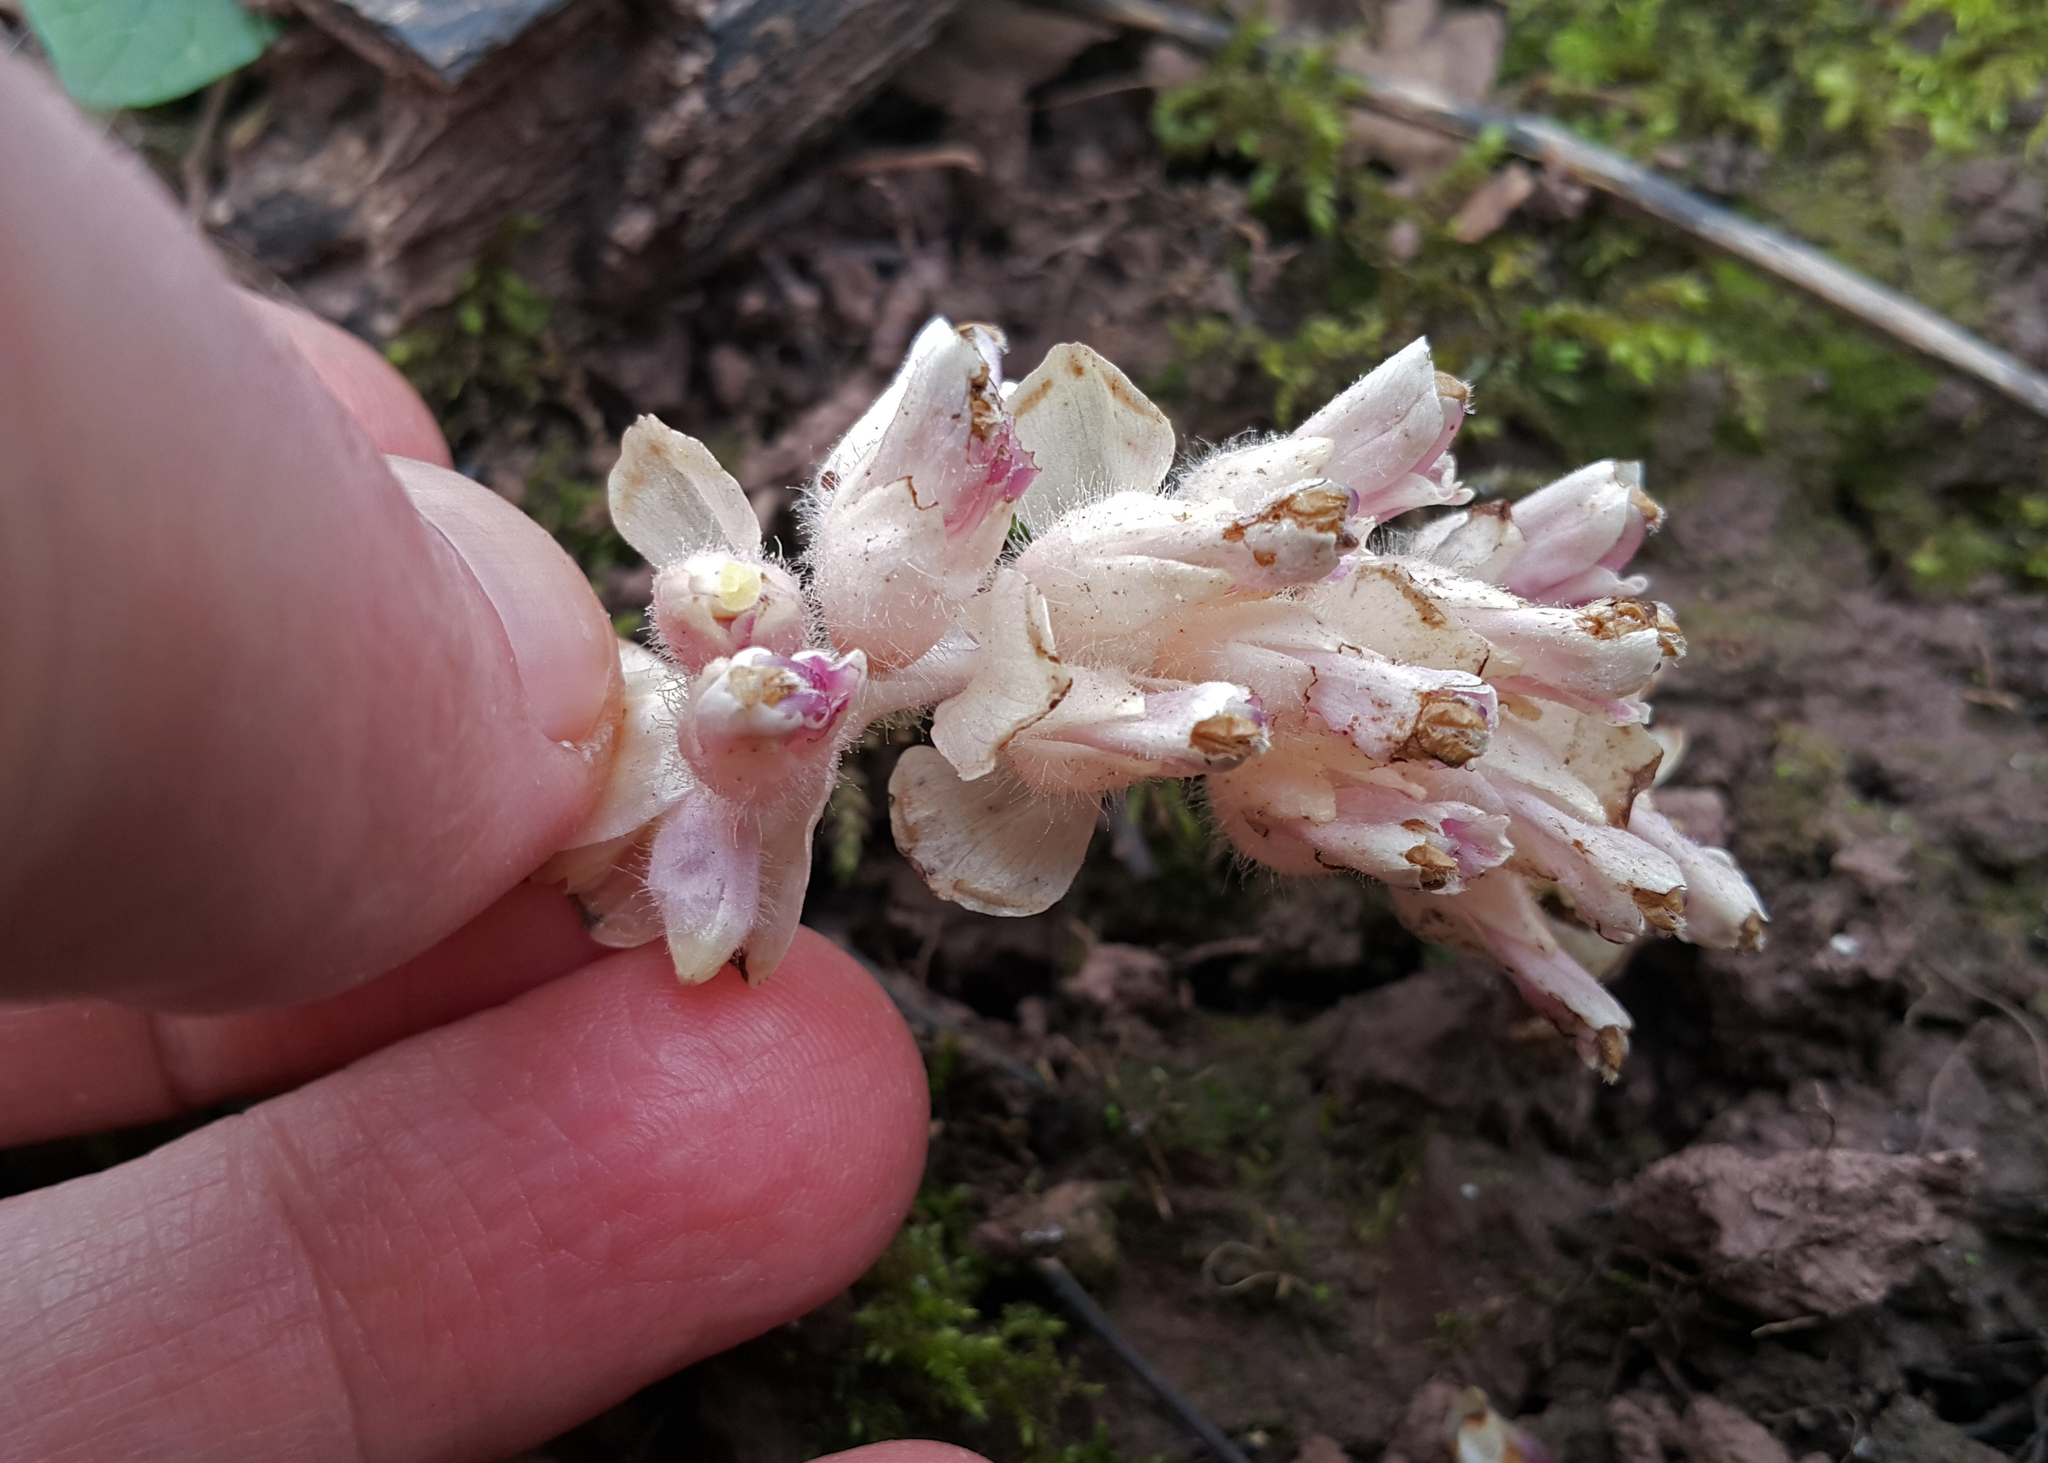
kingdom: Plantae
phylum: Tracheophyta
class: Magnoliopsida
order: Lamiales
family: Orobanchaceae
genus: Lathraea
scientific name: Lathraea squamaria
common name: Toothwort
